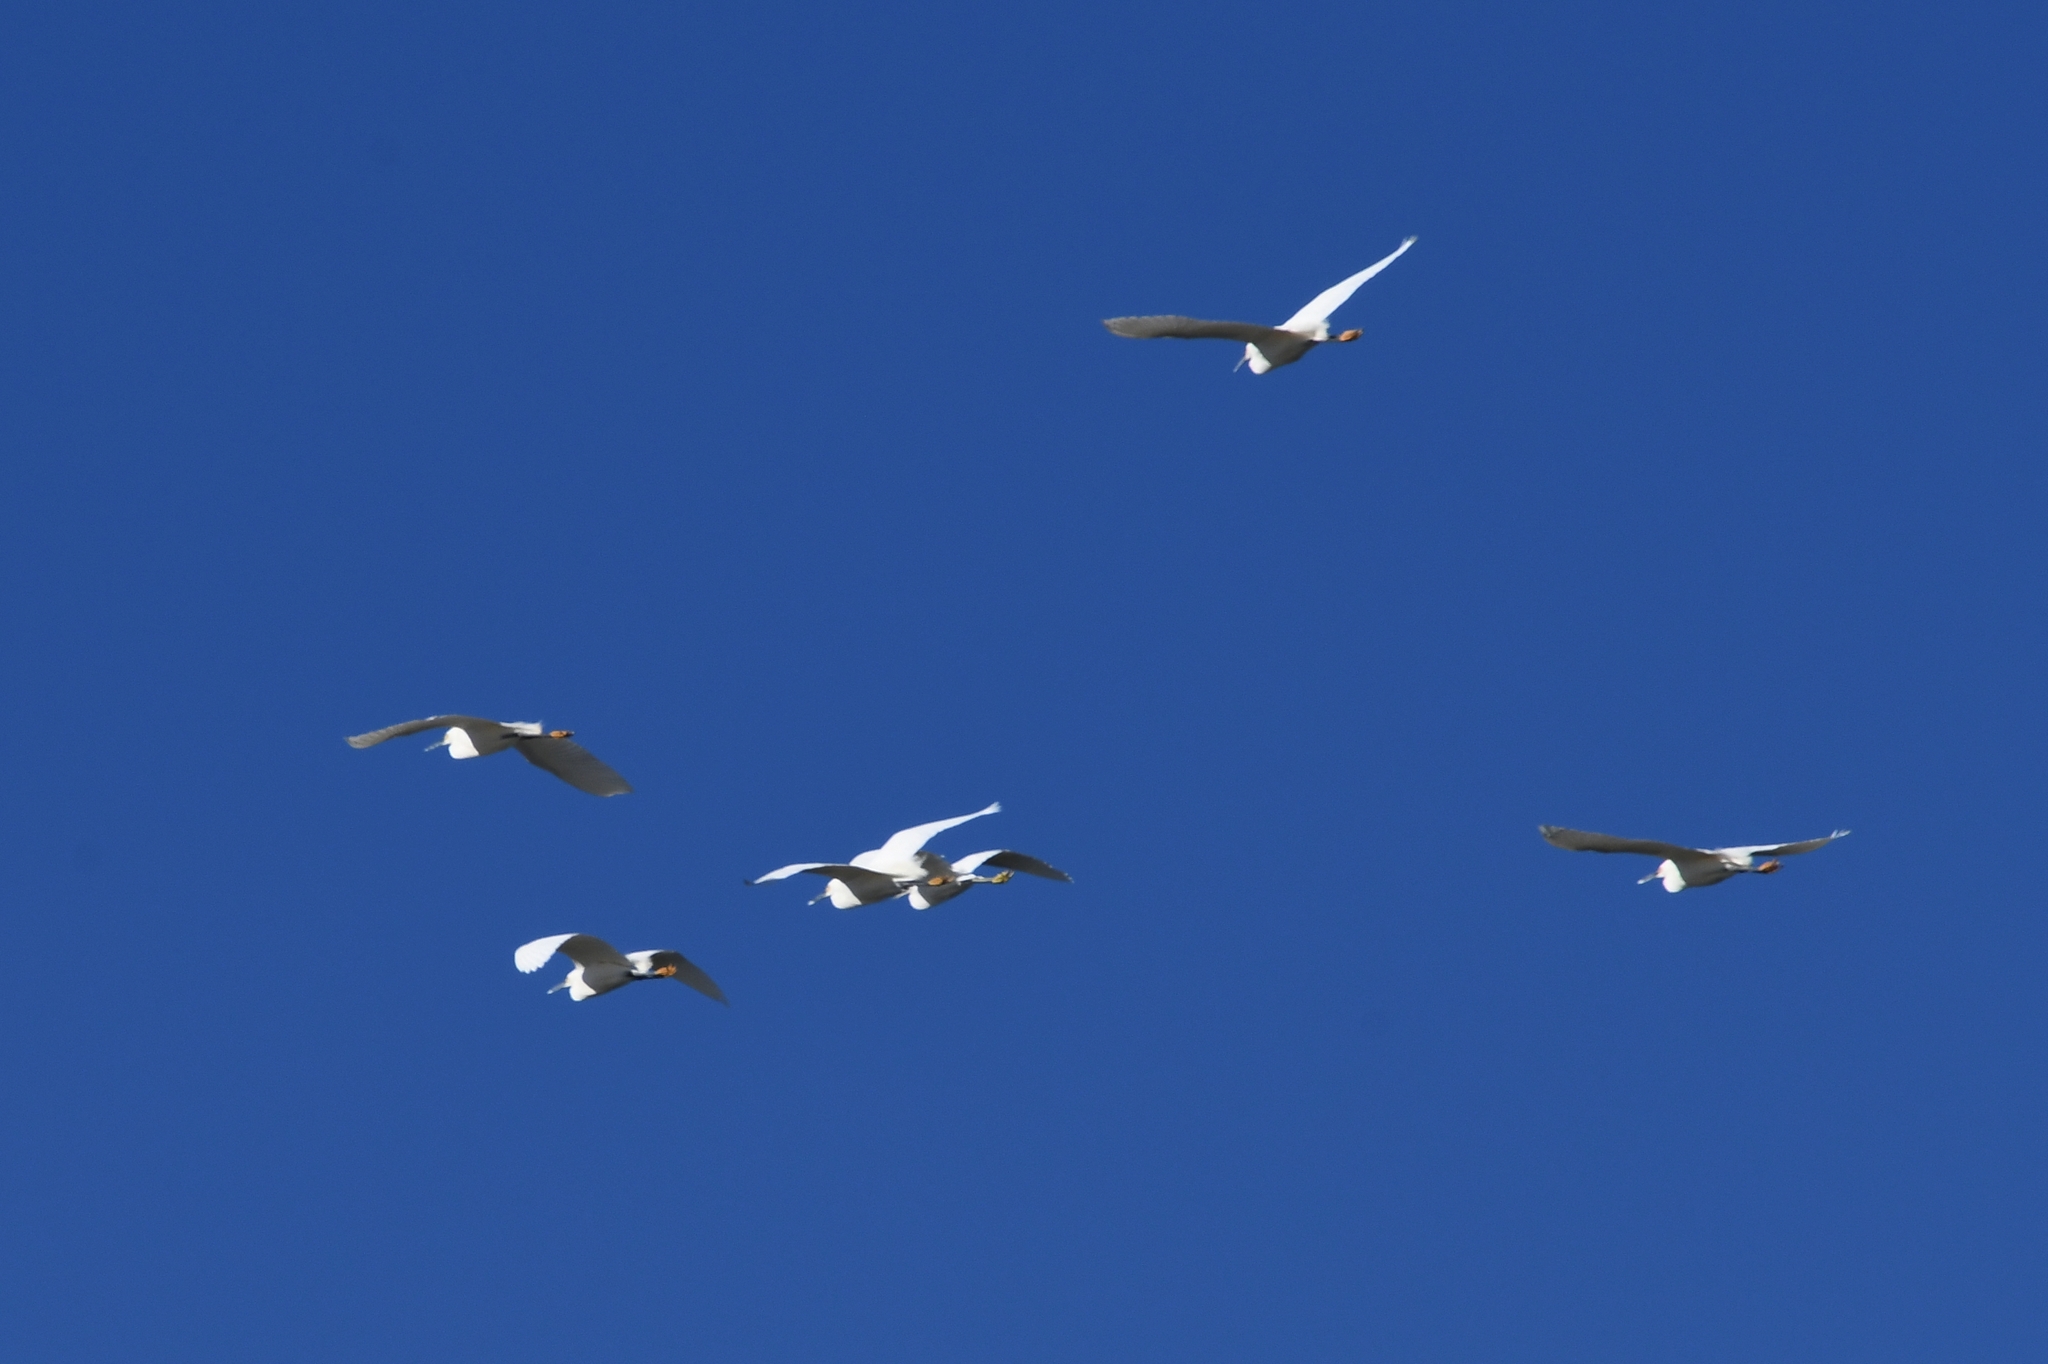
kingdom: Animalia
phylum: Chordata
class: Aves
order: Pelecaniformes
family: Ardeidae
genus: Egretta
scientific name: Egretta thula
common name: Snowy egret
